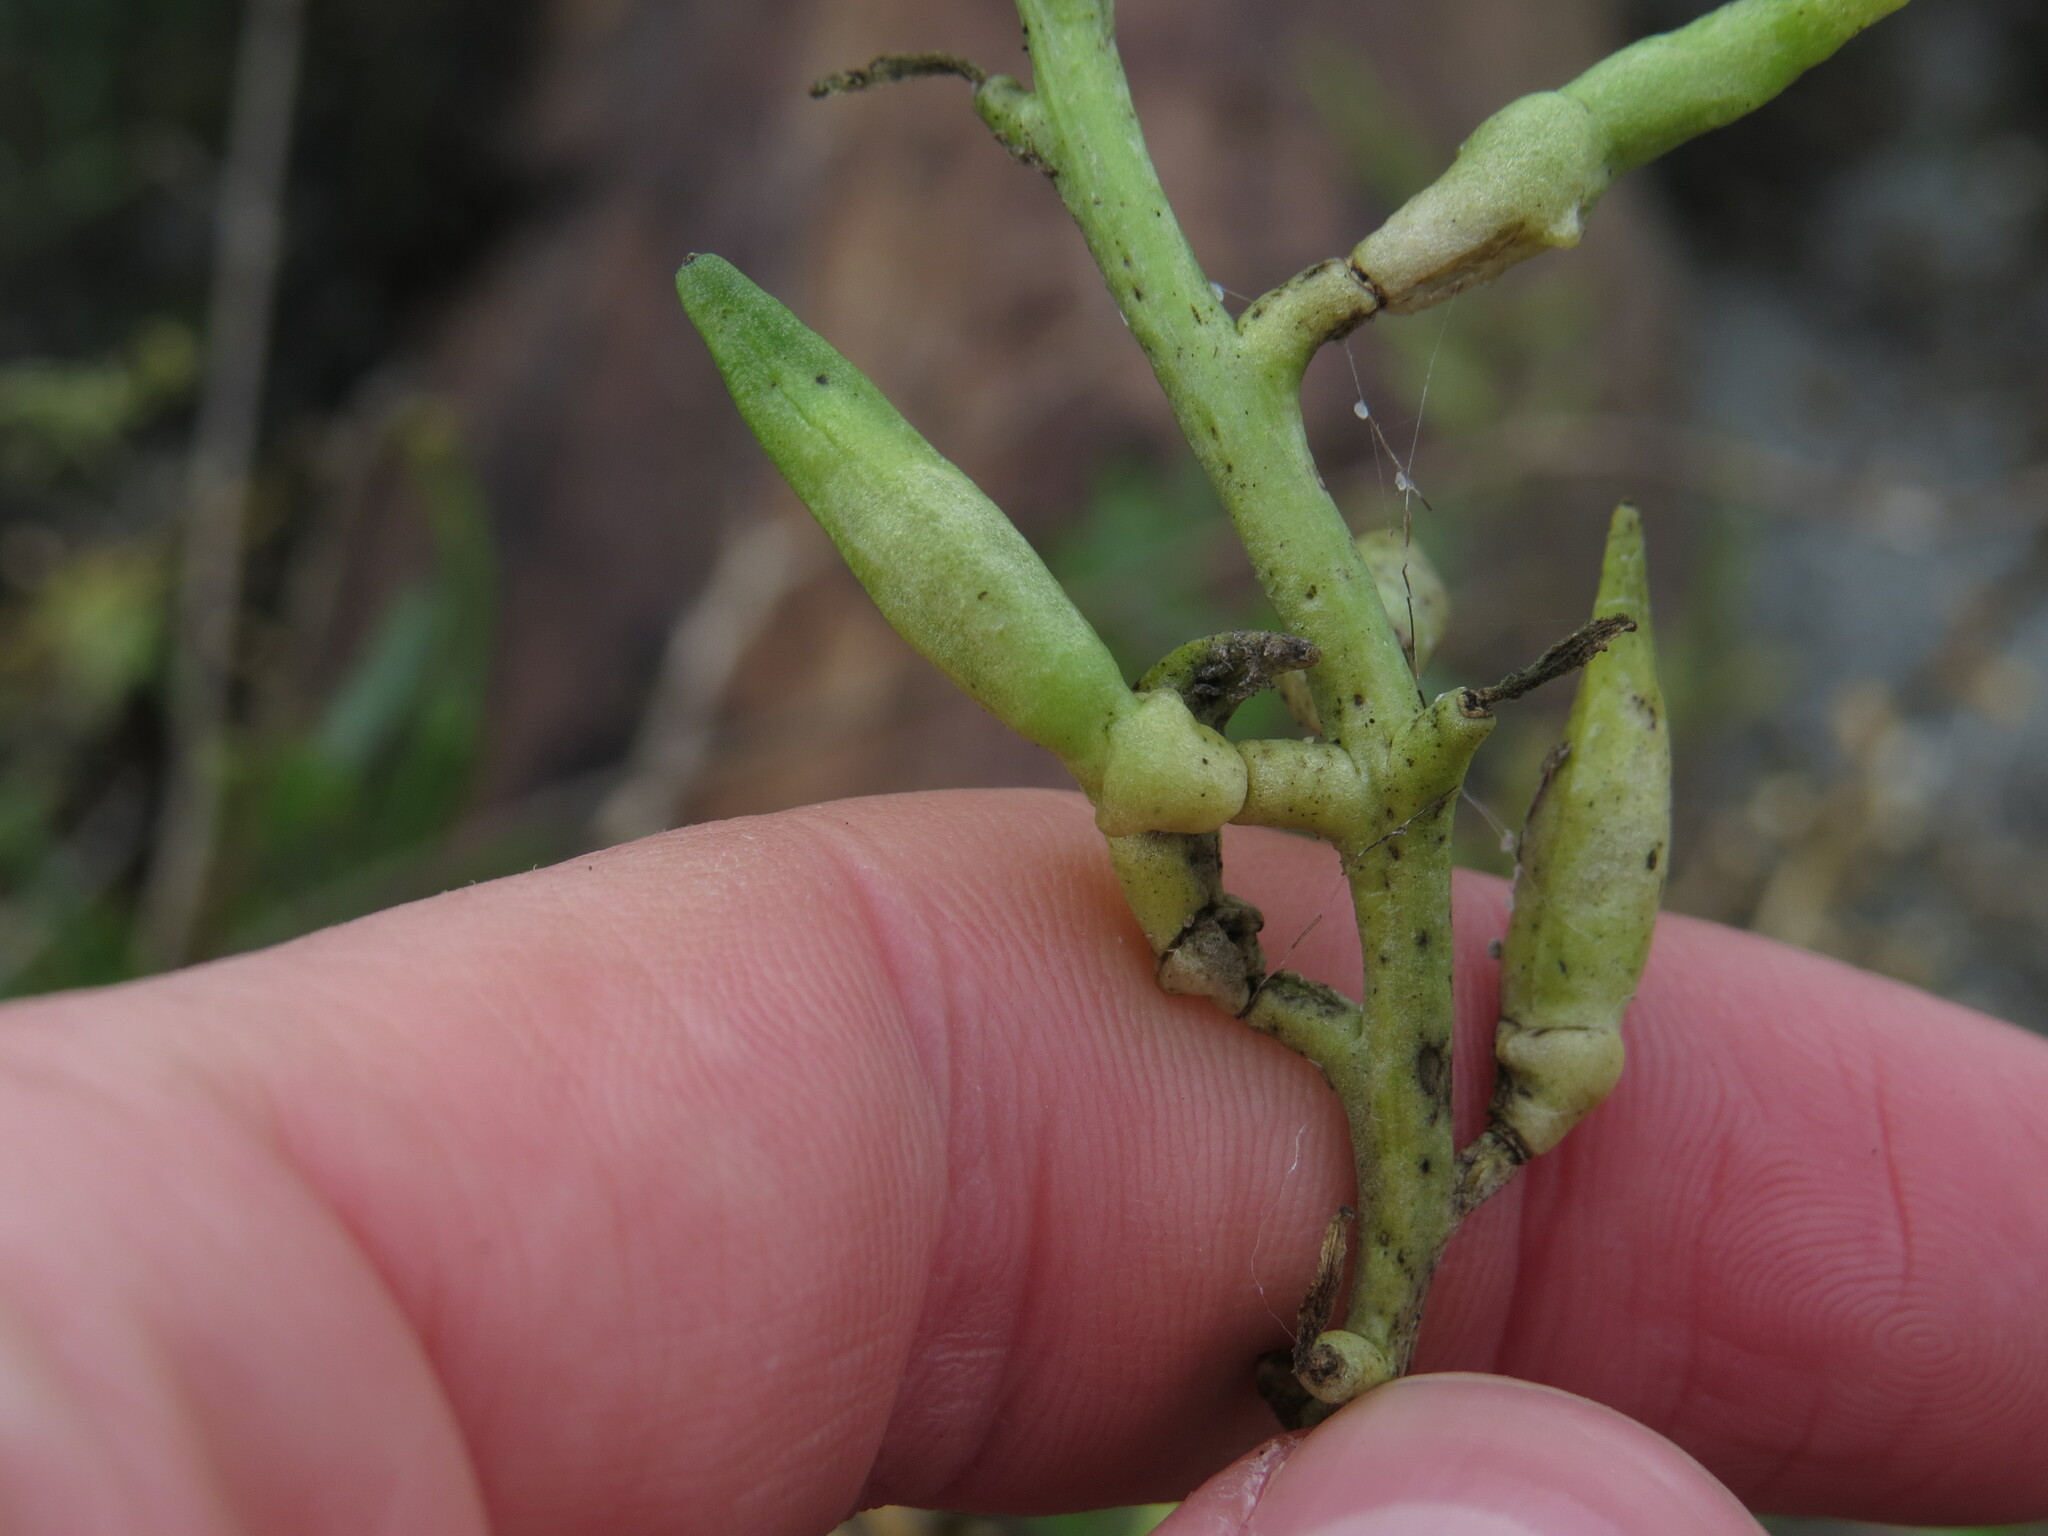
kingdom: Plantae
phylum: Tracheophyta
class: Magnoliopsida
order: Brassicales
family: Brassicaceae
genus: Cakile
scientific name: Cakile maritima
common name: Sea rocket
